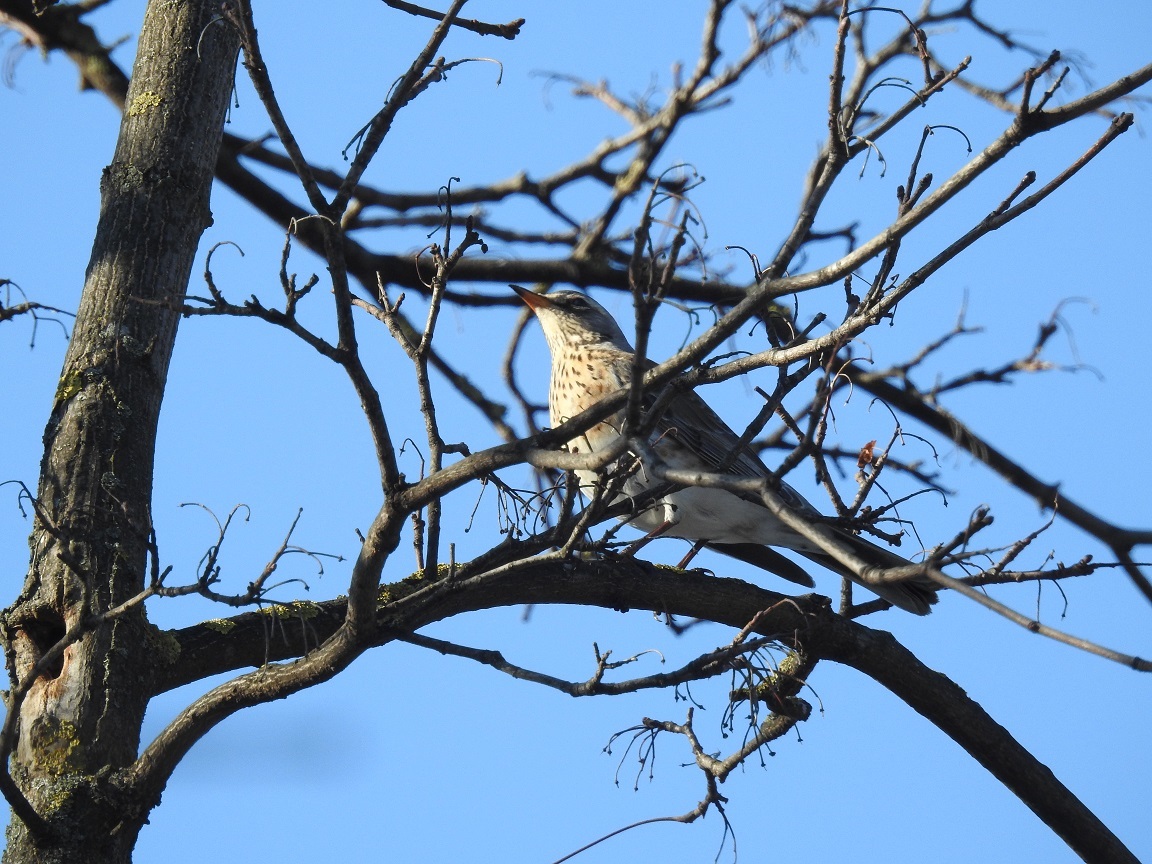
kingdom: Animalia
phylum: Chordata
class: Aves
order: Passeriformes
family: Turdidae
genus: Turdus
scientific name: Turdus pilaris
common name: Fieldfare
